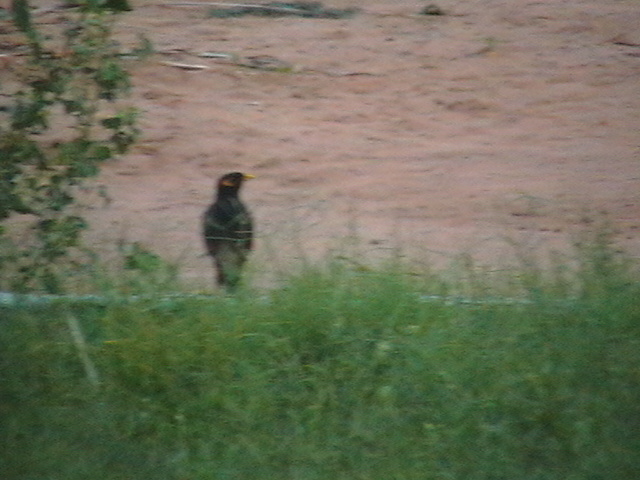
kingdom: Animalia
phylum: Chordata
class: Aves
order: Passeriformes
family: Sturnidae
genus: Acridotheres
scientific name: Acridotheres tristis
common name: Common myna
